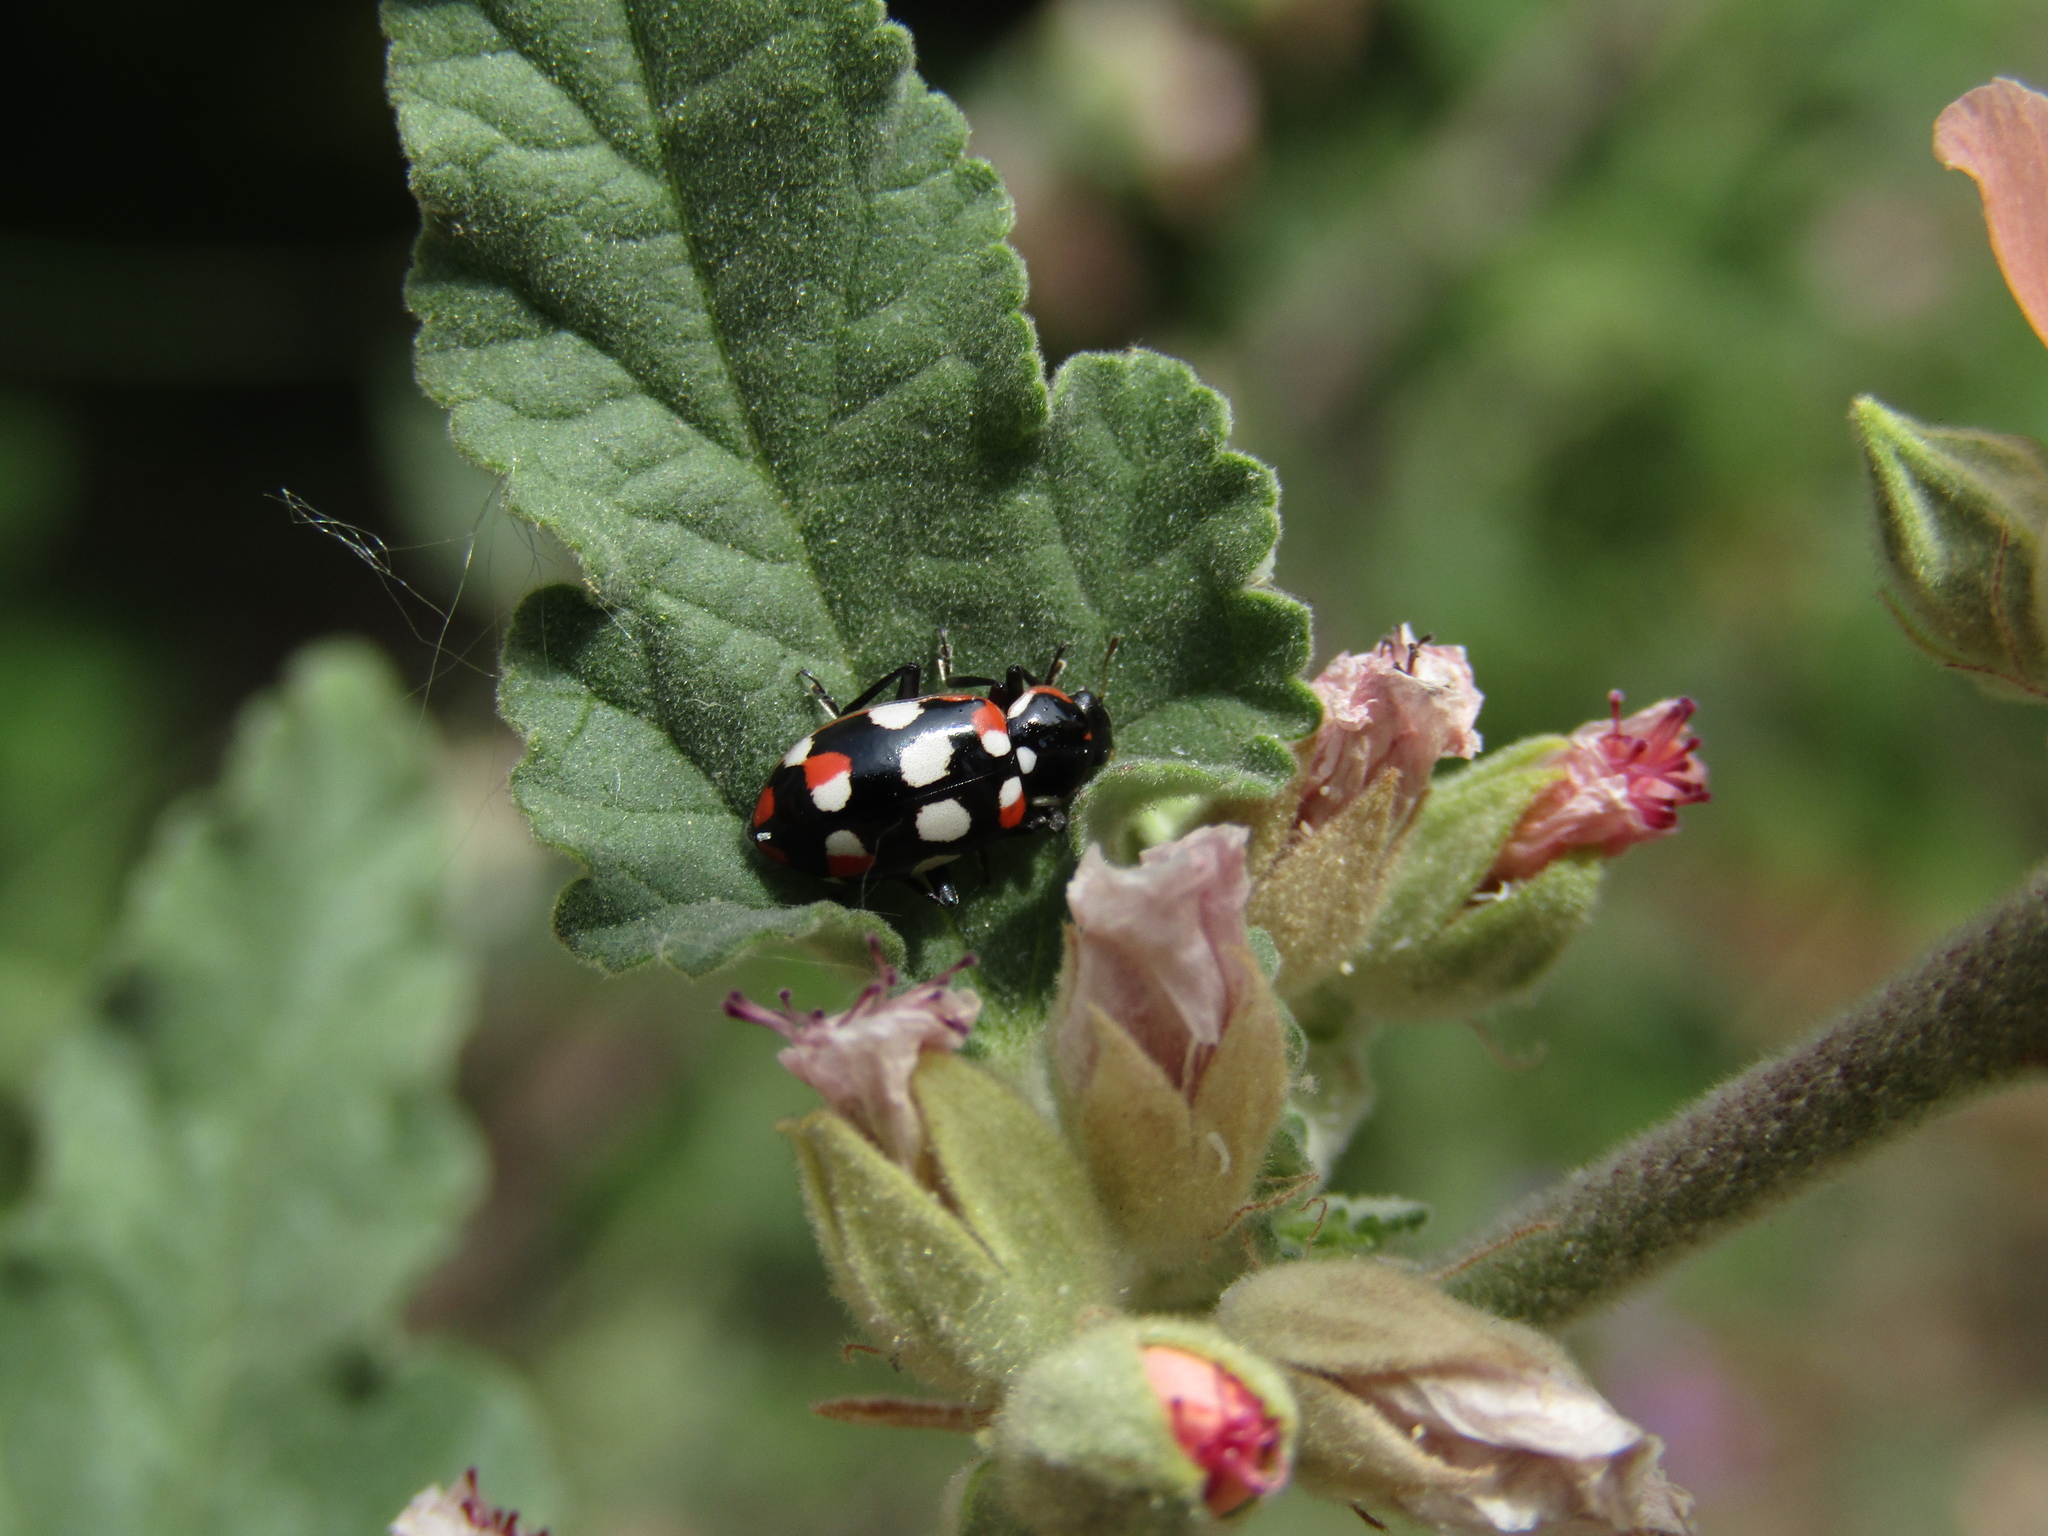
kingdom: Animalia
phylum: Arthropoda
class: Insecta
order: Coleoptera
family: Coccinellidae
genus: Eriopis
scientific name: Eriopis connexa
